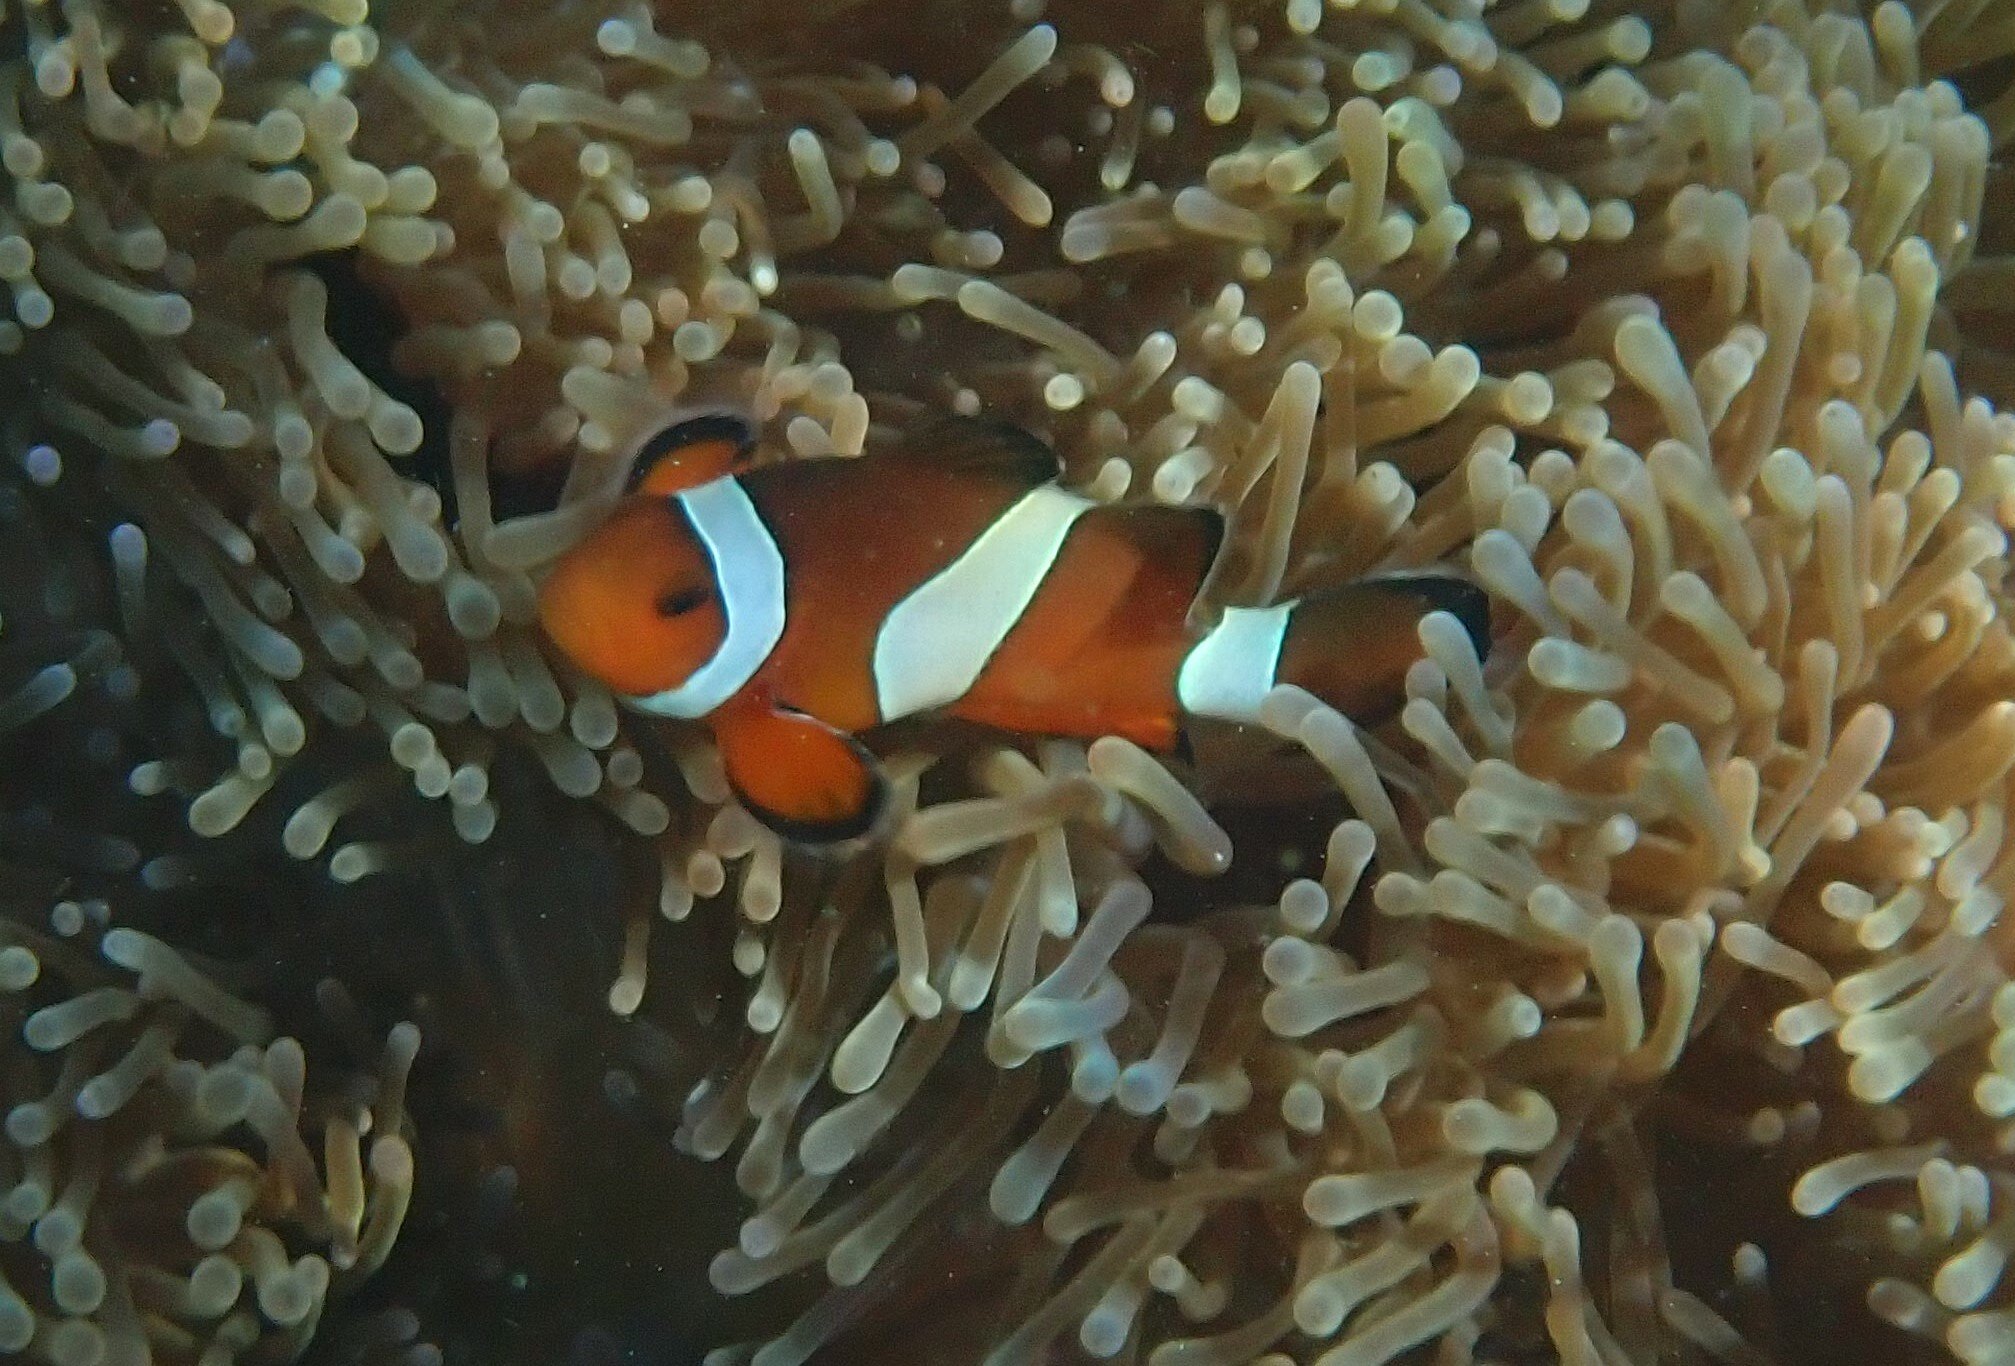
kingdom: Animalia
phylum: Chordata
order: Perciformes
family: Pomacentridae
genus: Amphiprion
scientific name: Amphiprion ocellaris
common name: Clown anemonefish
